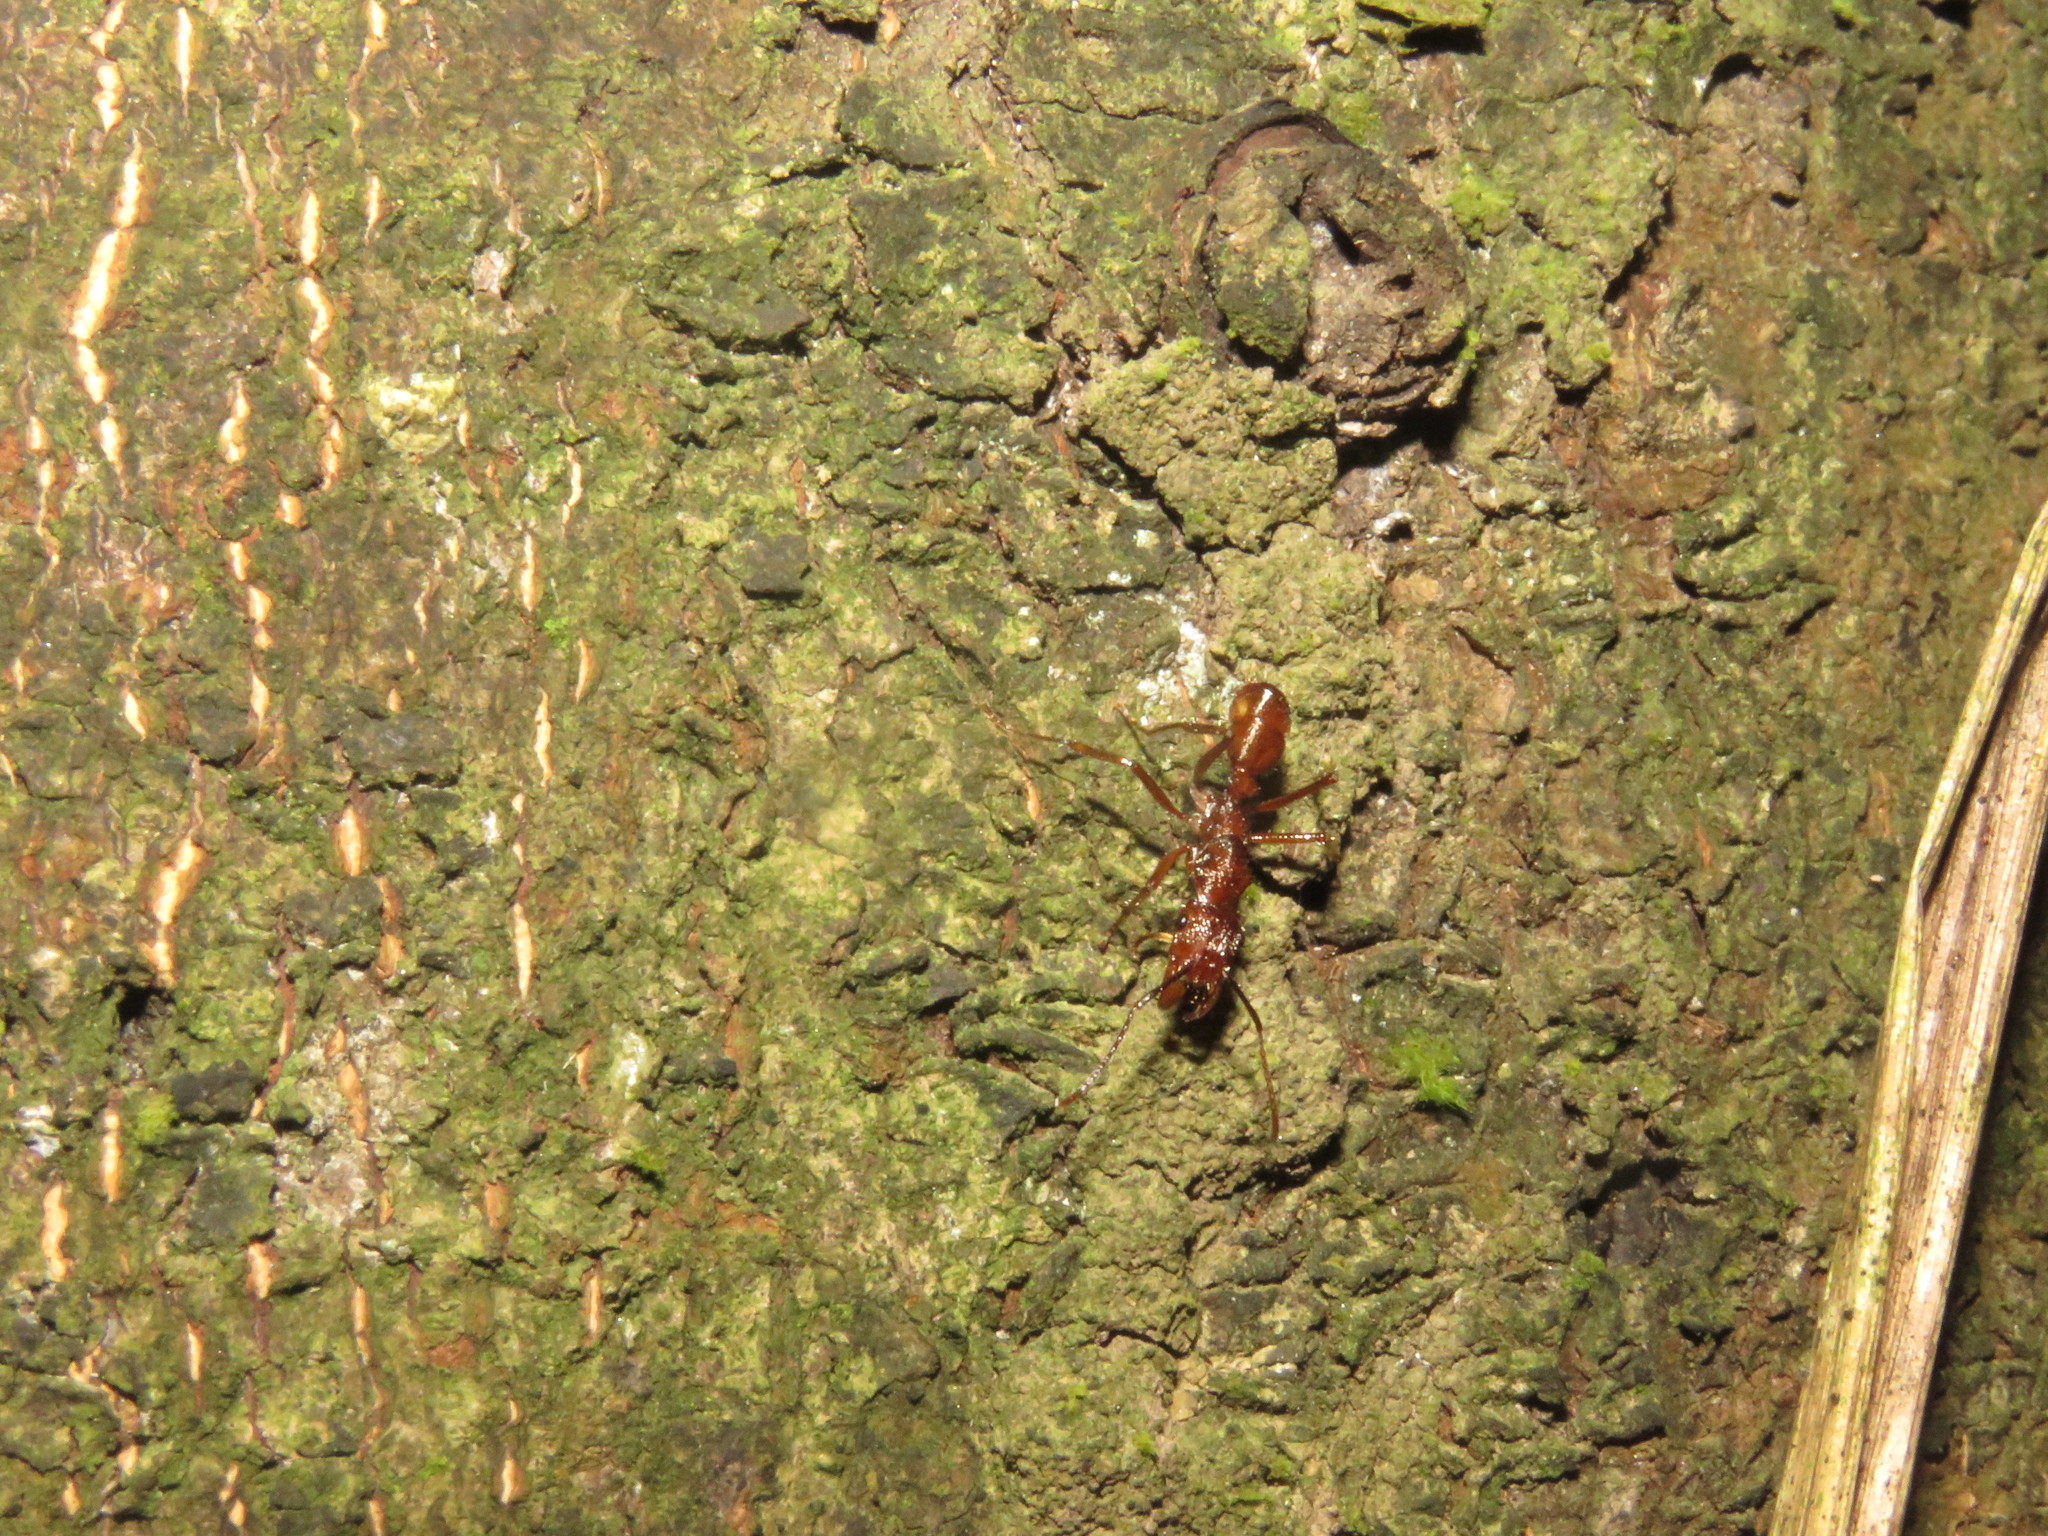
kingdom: Animalia
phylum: Arthropoda
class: Insecta
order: Hymenoptera
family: Formicidae
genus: Ectatomma
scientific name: Ectatomma tuberculatum
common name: Ant
